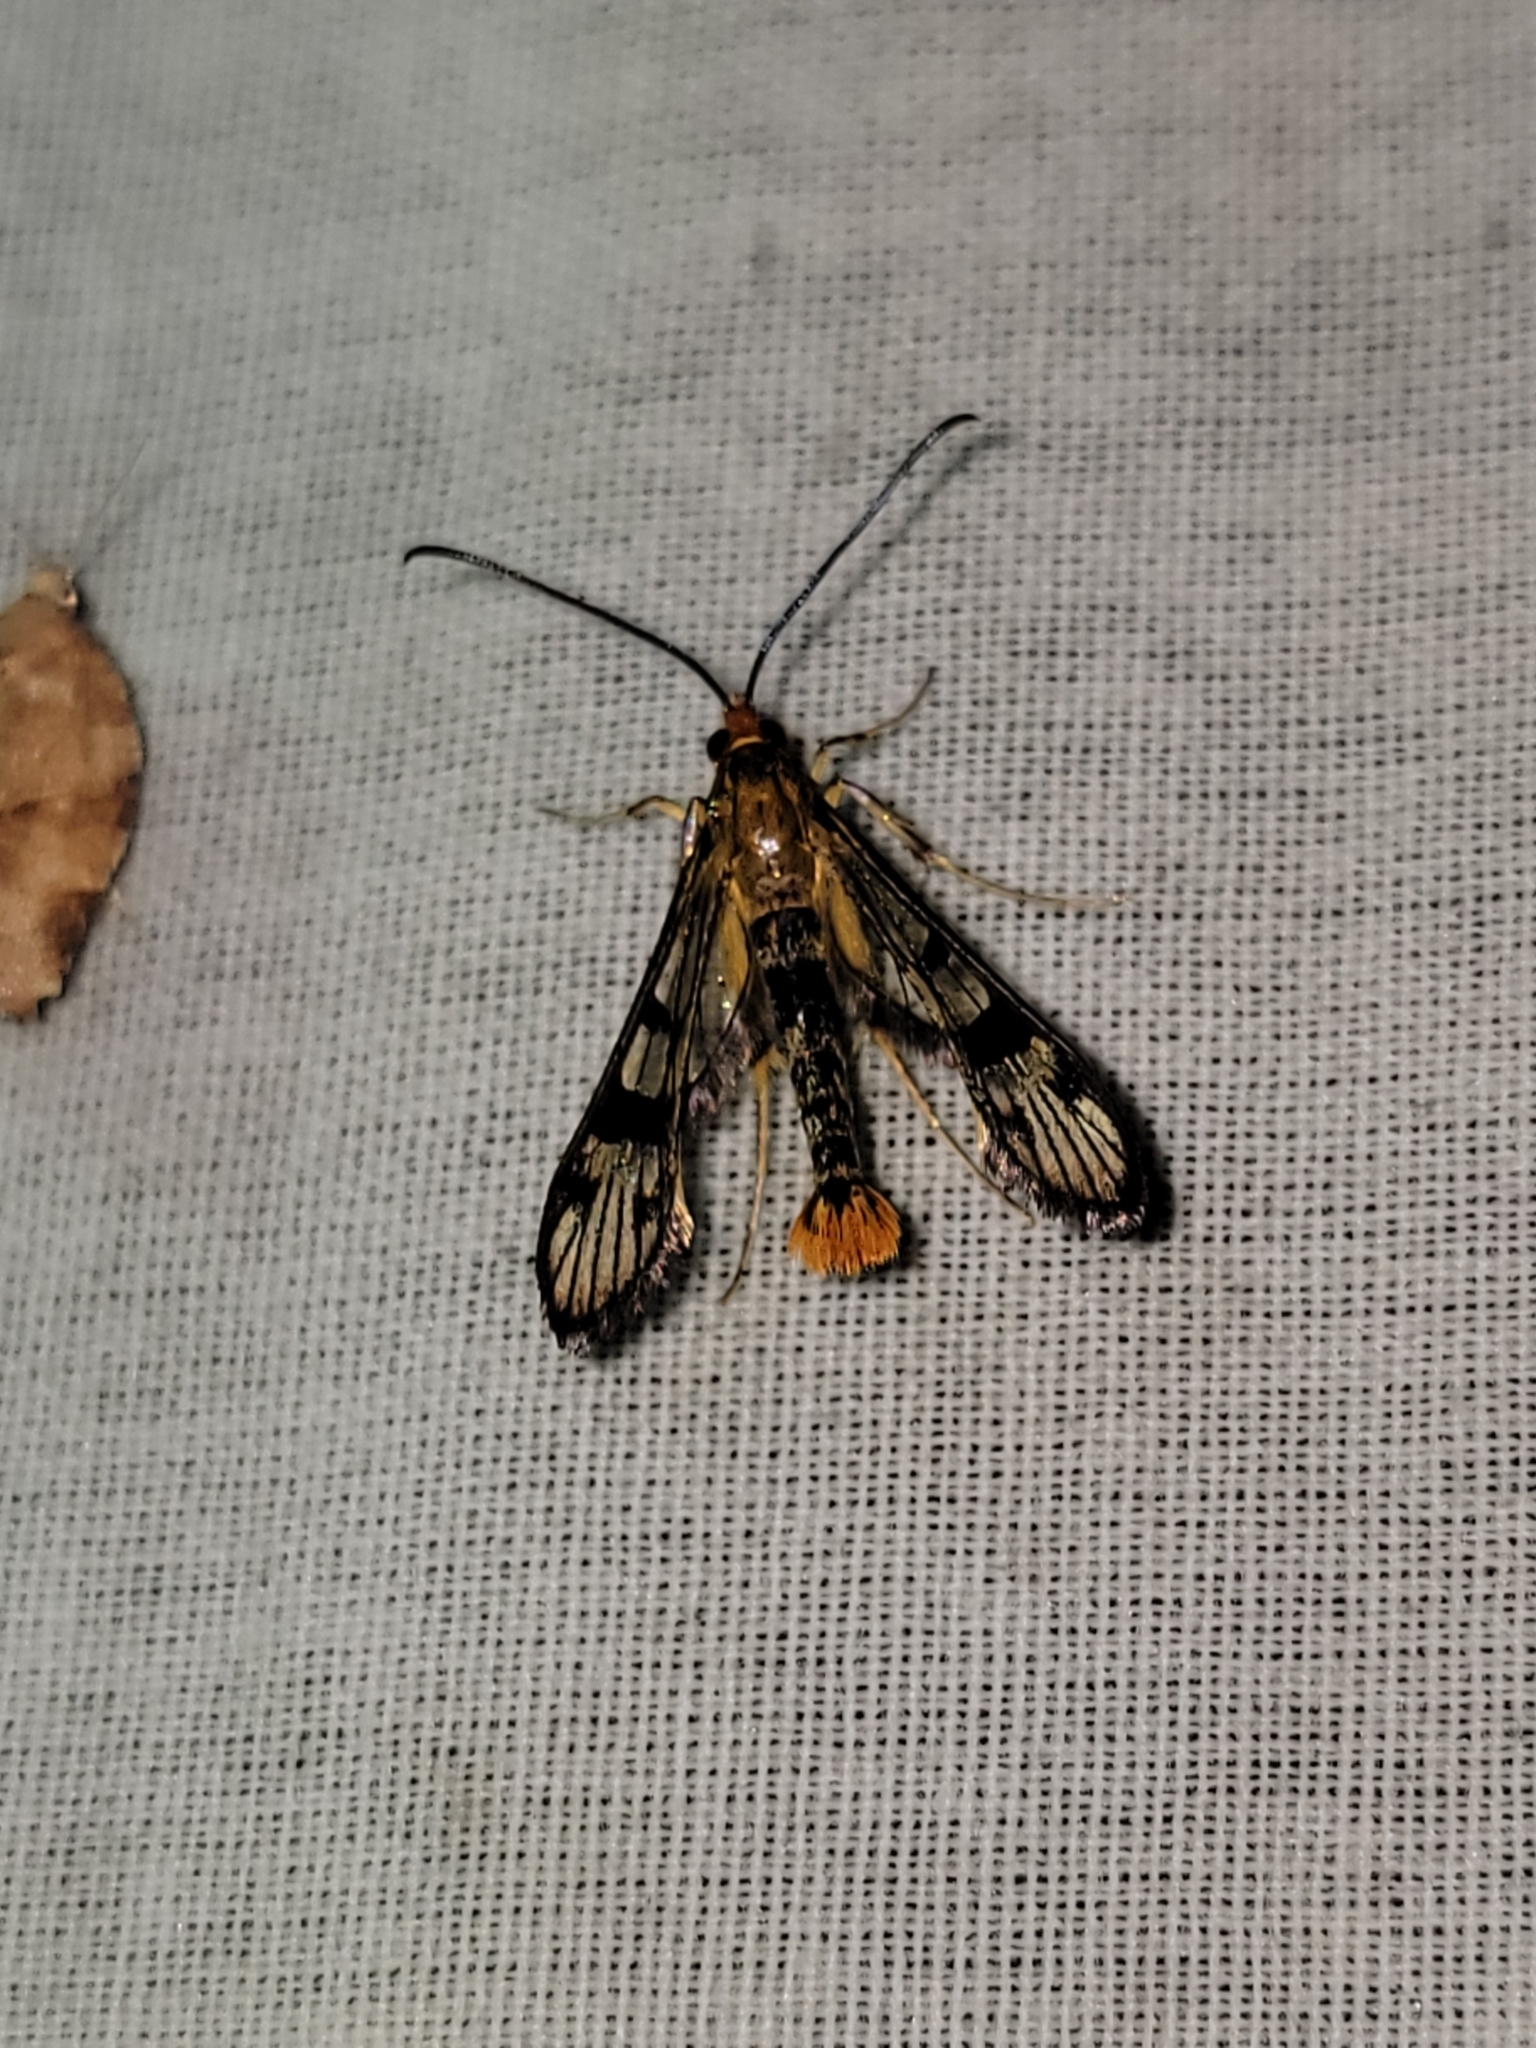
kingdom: Animalia
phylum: Arthropoda
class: Insecta
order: Lepidoptera
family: Sesiidae
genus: Synanthedon
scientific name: Synanthedon acerni
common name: Maple callus borer moth
